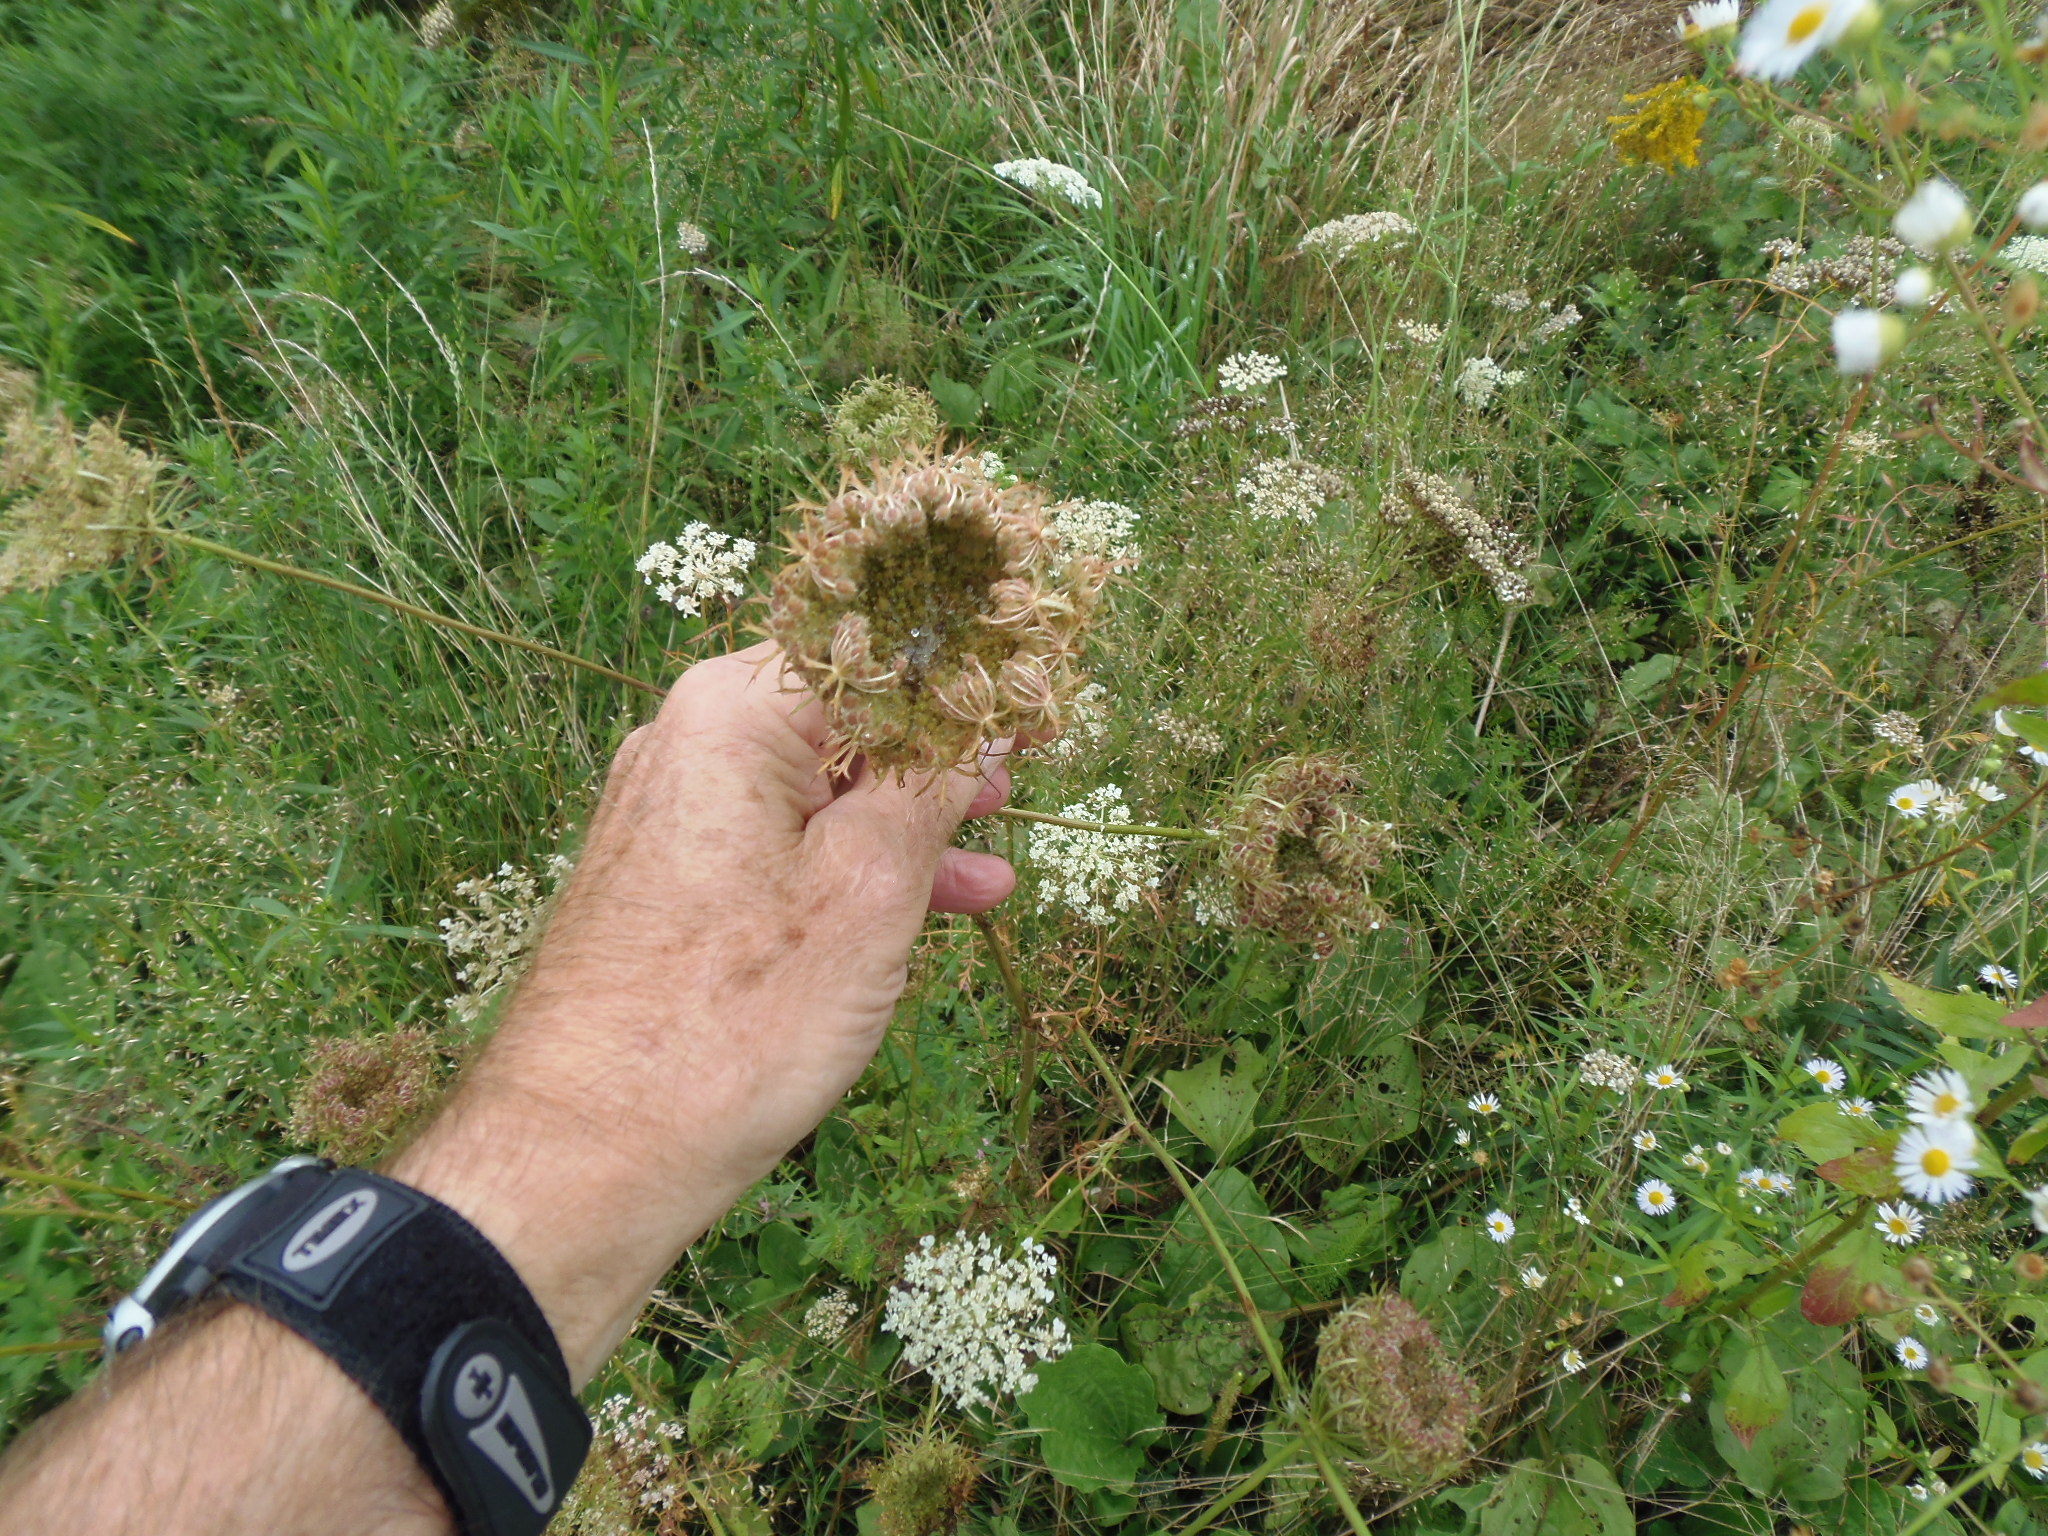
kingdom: Plantae
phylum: Tracheophyta
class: Magnoliopsida
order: Apiales
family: Apiaceae
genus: Daucus
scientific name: Daucus carota
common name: Wild carrot
